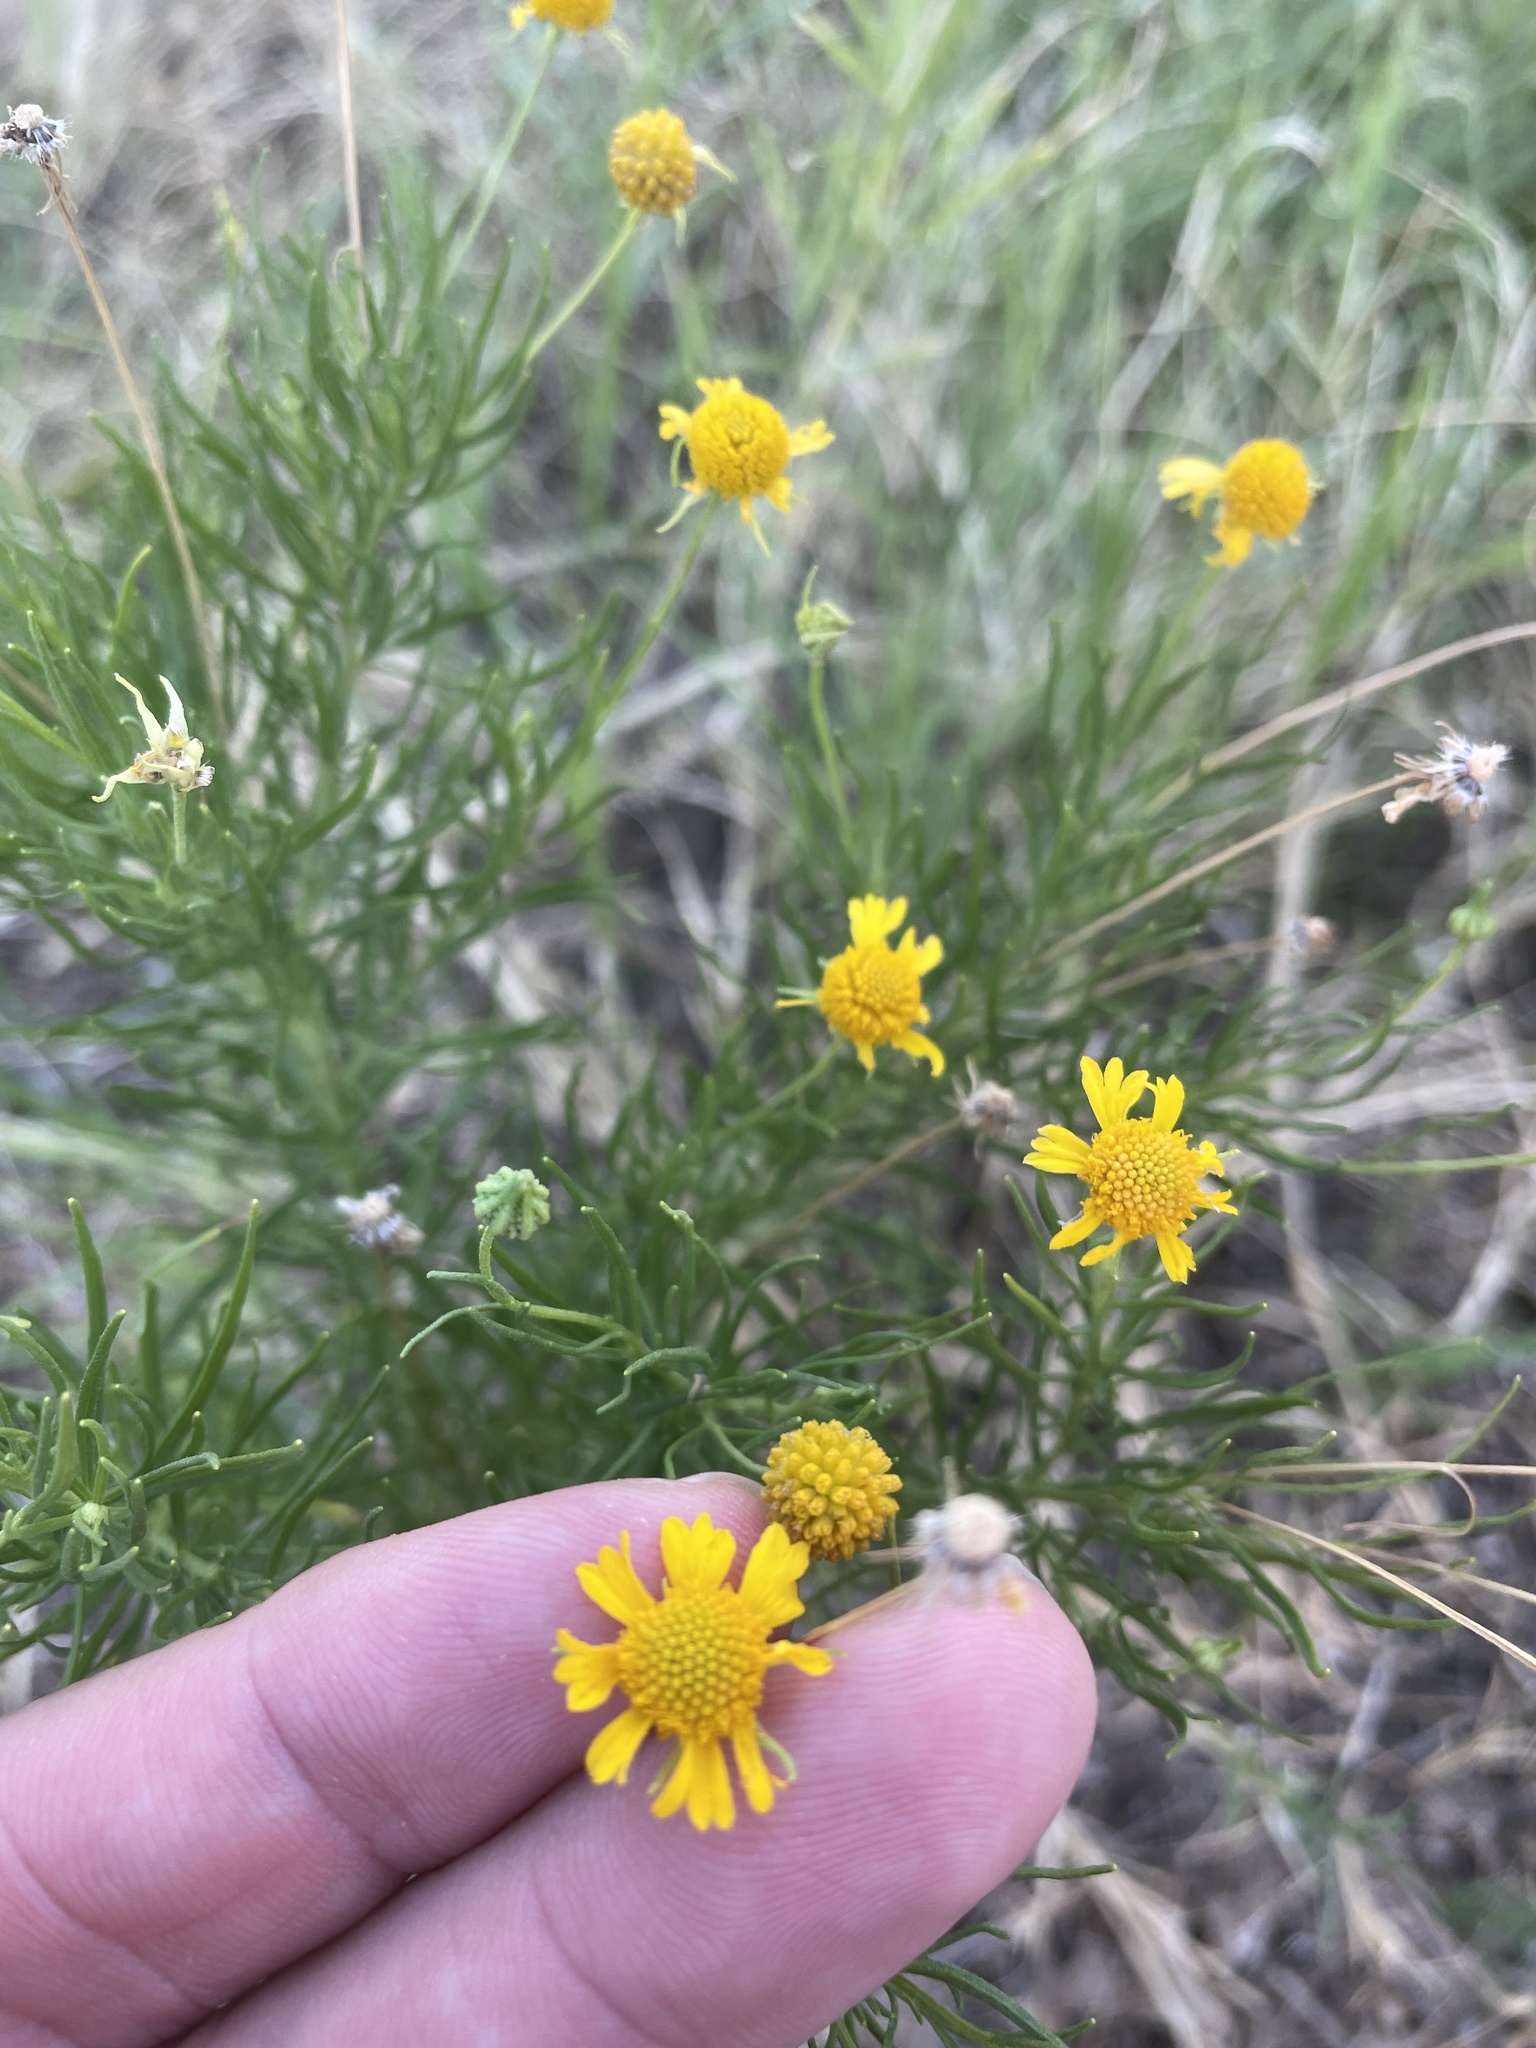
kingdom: Plantae
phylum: Tracheophyta
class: Magnoliopsida
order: Asterales
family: Asteraceae
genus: Helenium
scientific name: Helenium amarum
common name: Bitter sneezeweed
